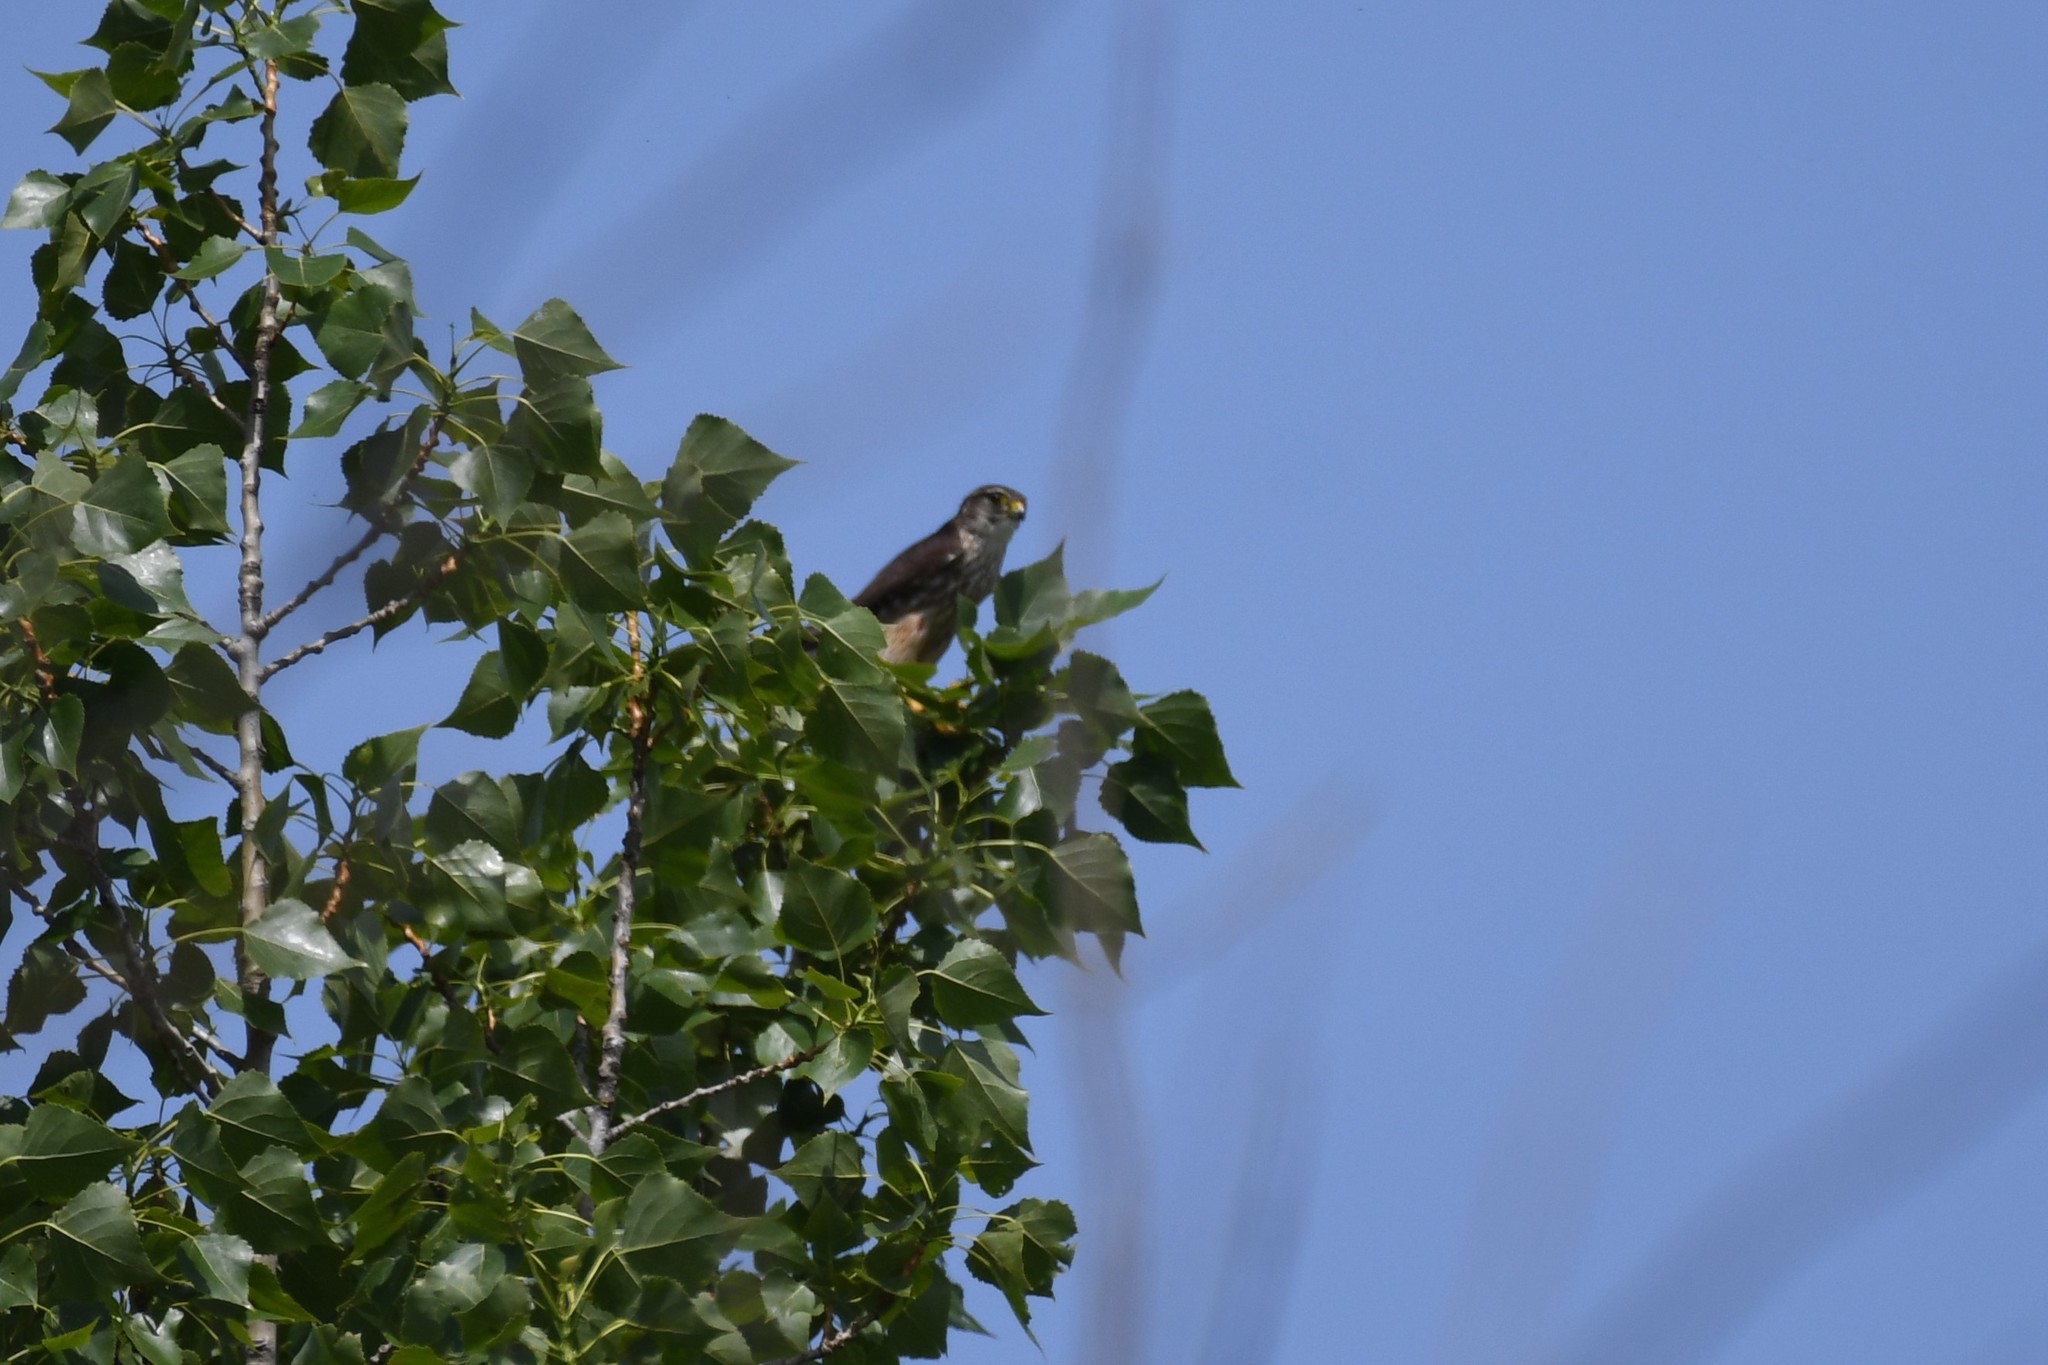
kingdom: Animalia
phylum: Chordata
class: Aves
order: Falconiformes
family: Falconidae
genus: Falco
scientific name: Falco columbarius
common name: Merlin
